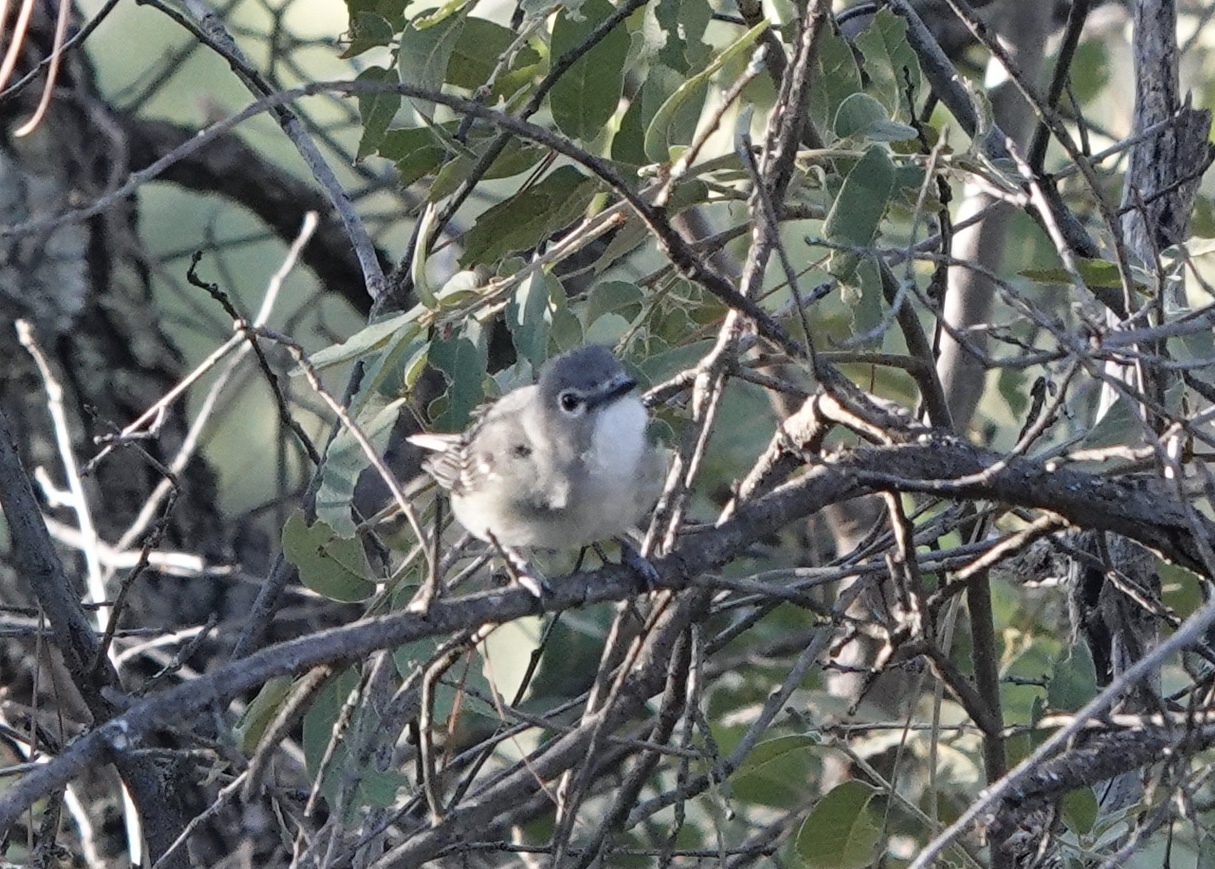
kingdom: Animalia
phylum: Chordata
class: Aves
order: Passeriformes
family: Vireonidae
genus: Vireo
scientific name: Vireo plumbeus
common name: Plumbeous vireo
